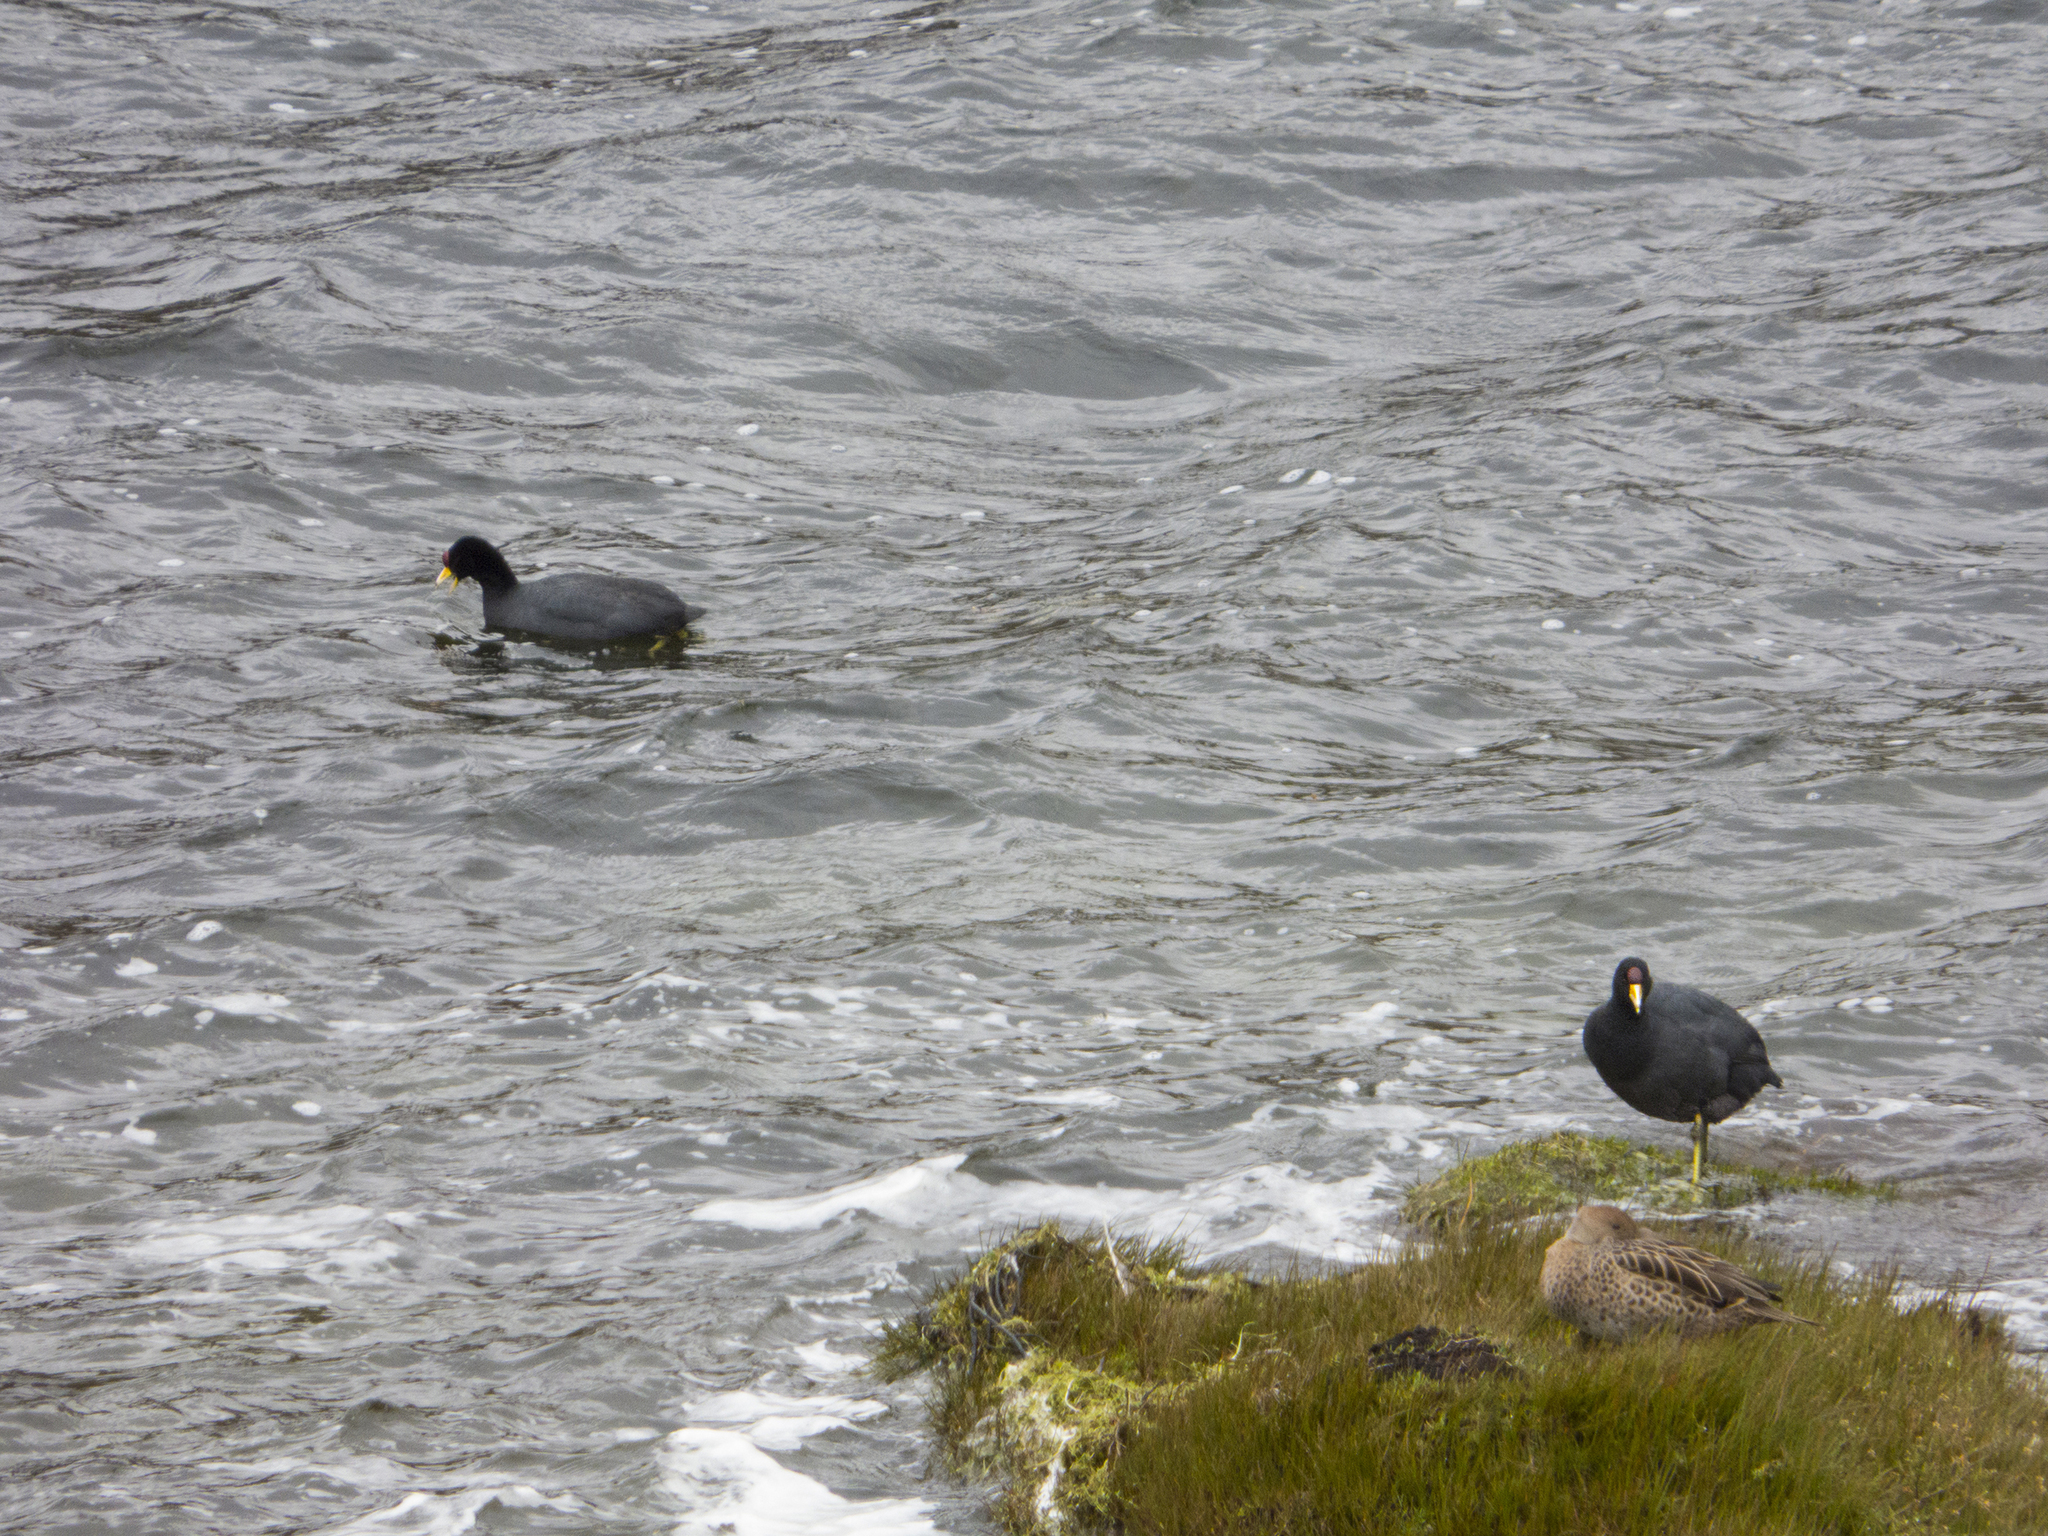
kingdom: Animalia
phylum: Chordata
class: Aves
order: Gruiformes
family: Rallidae
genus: Fulica
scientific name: Fulica ardesiaca
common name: Andean coot
